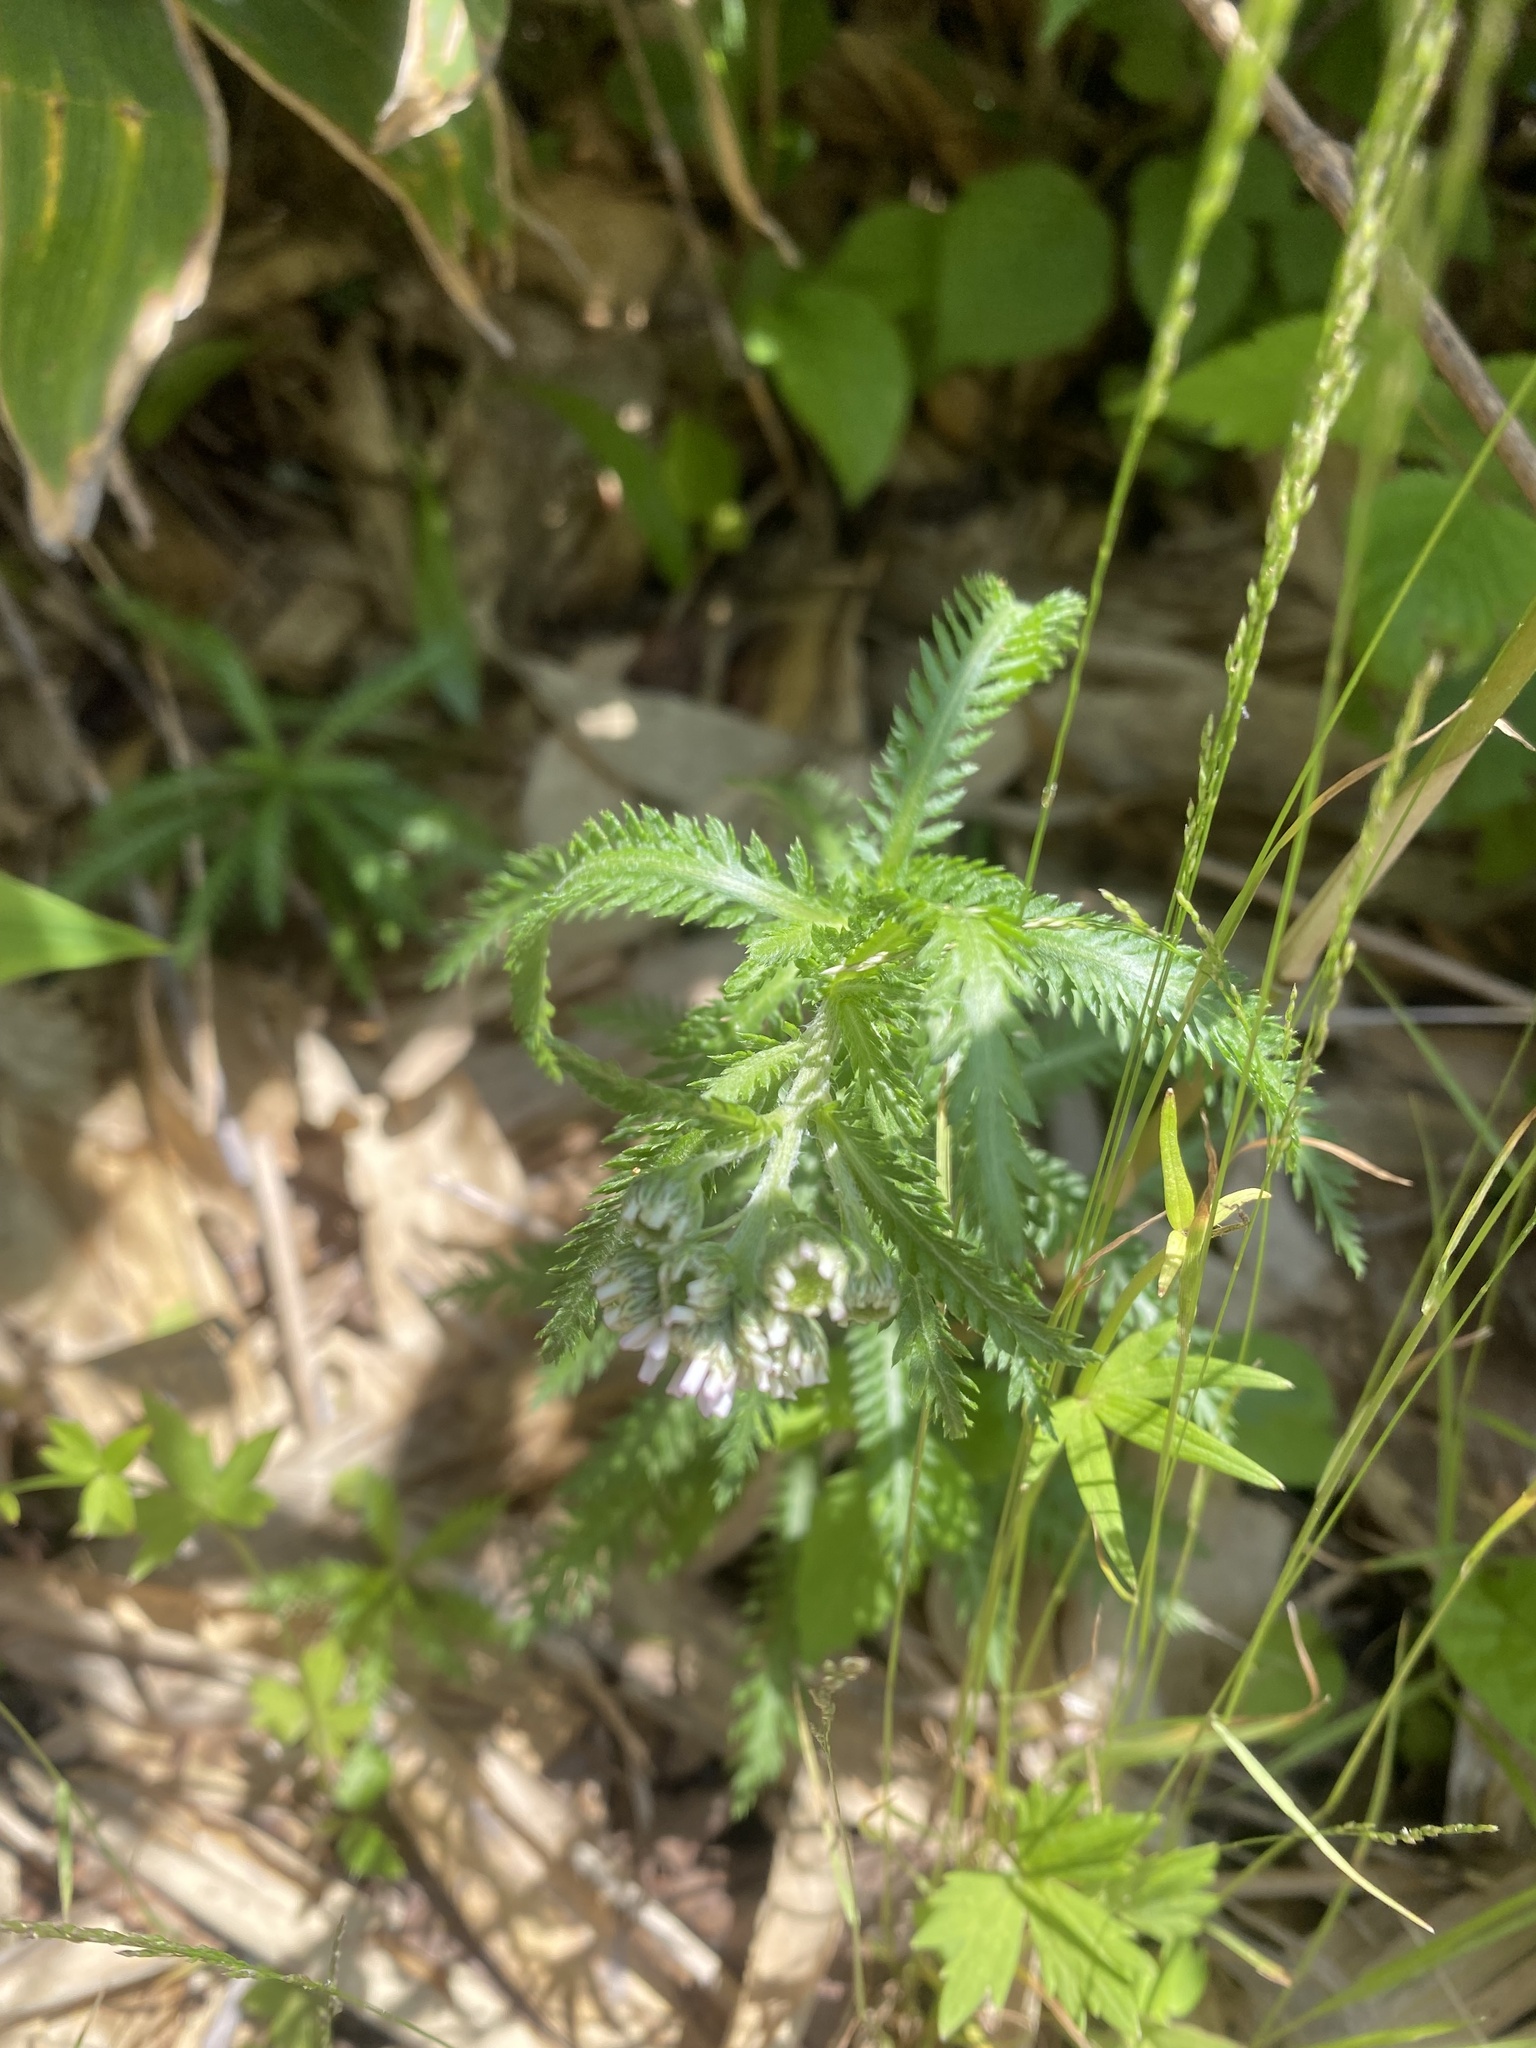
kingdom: Plantae
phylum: Tracheophyta
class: Magnoliopsida
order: Asterales
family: Asteraceae
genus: Achillea
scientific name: Achillea alpina
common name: Siberian yarrow
